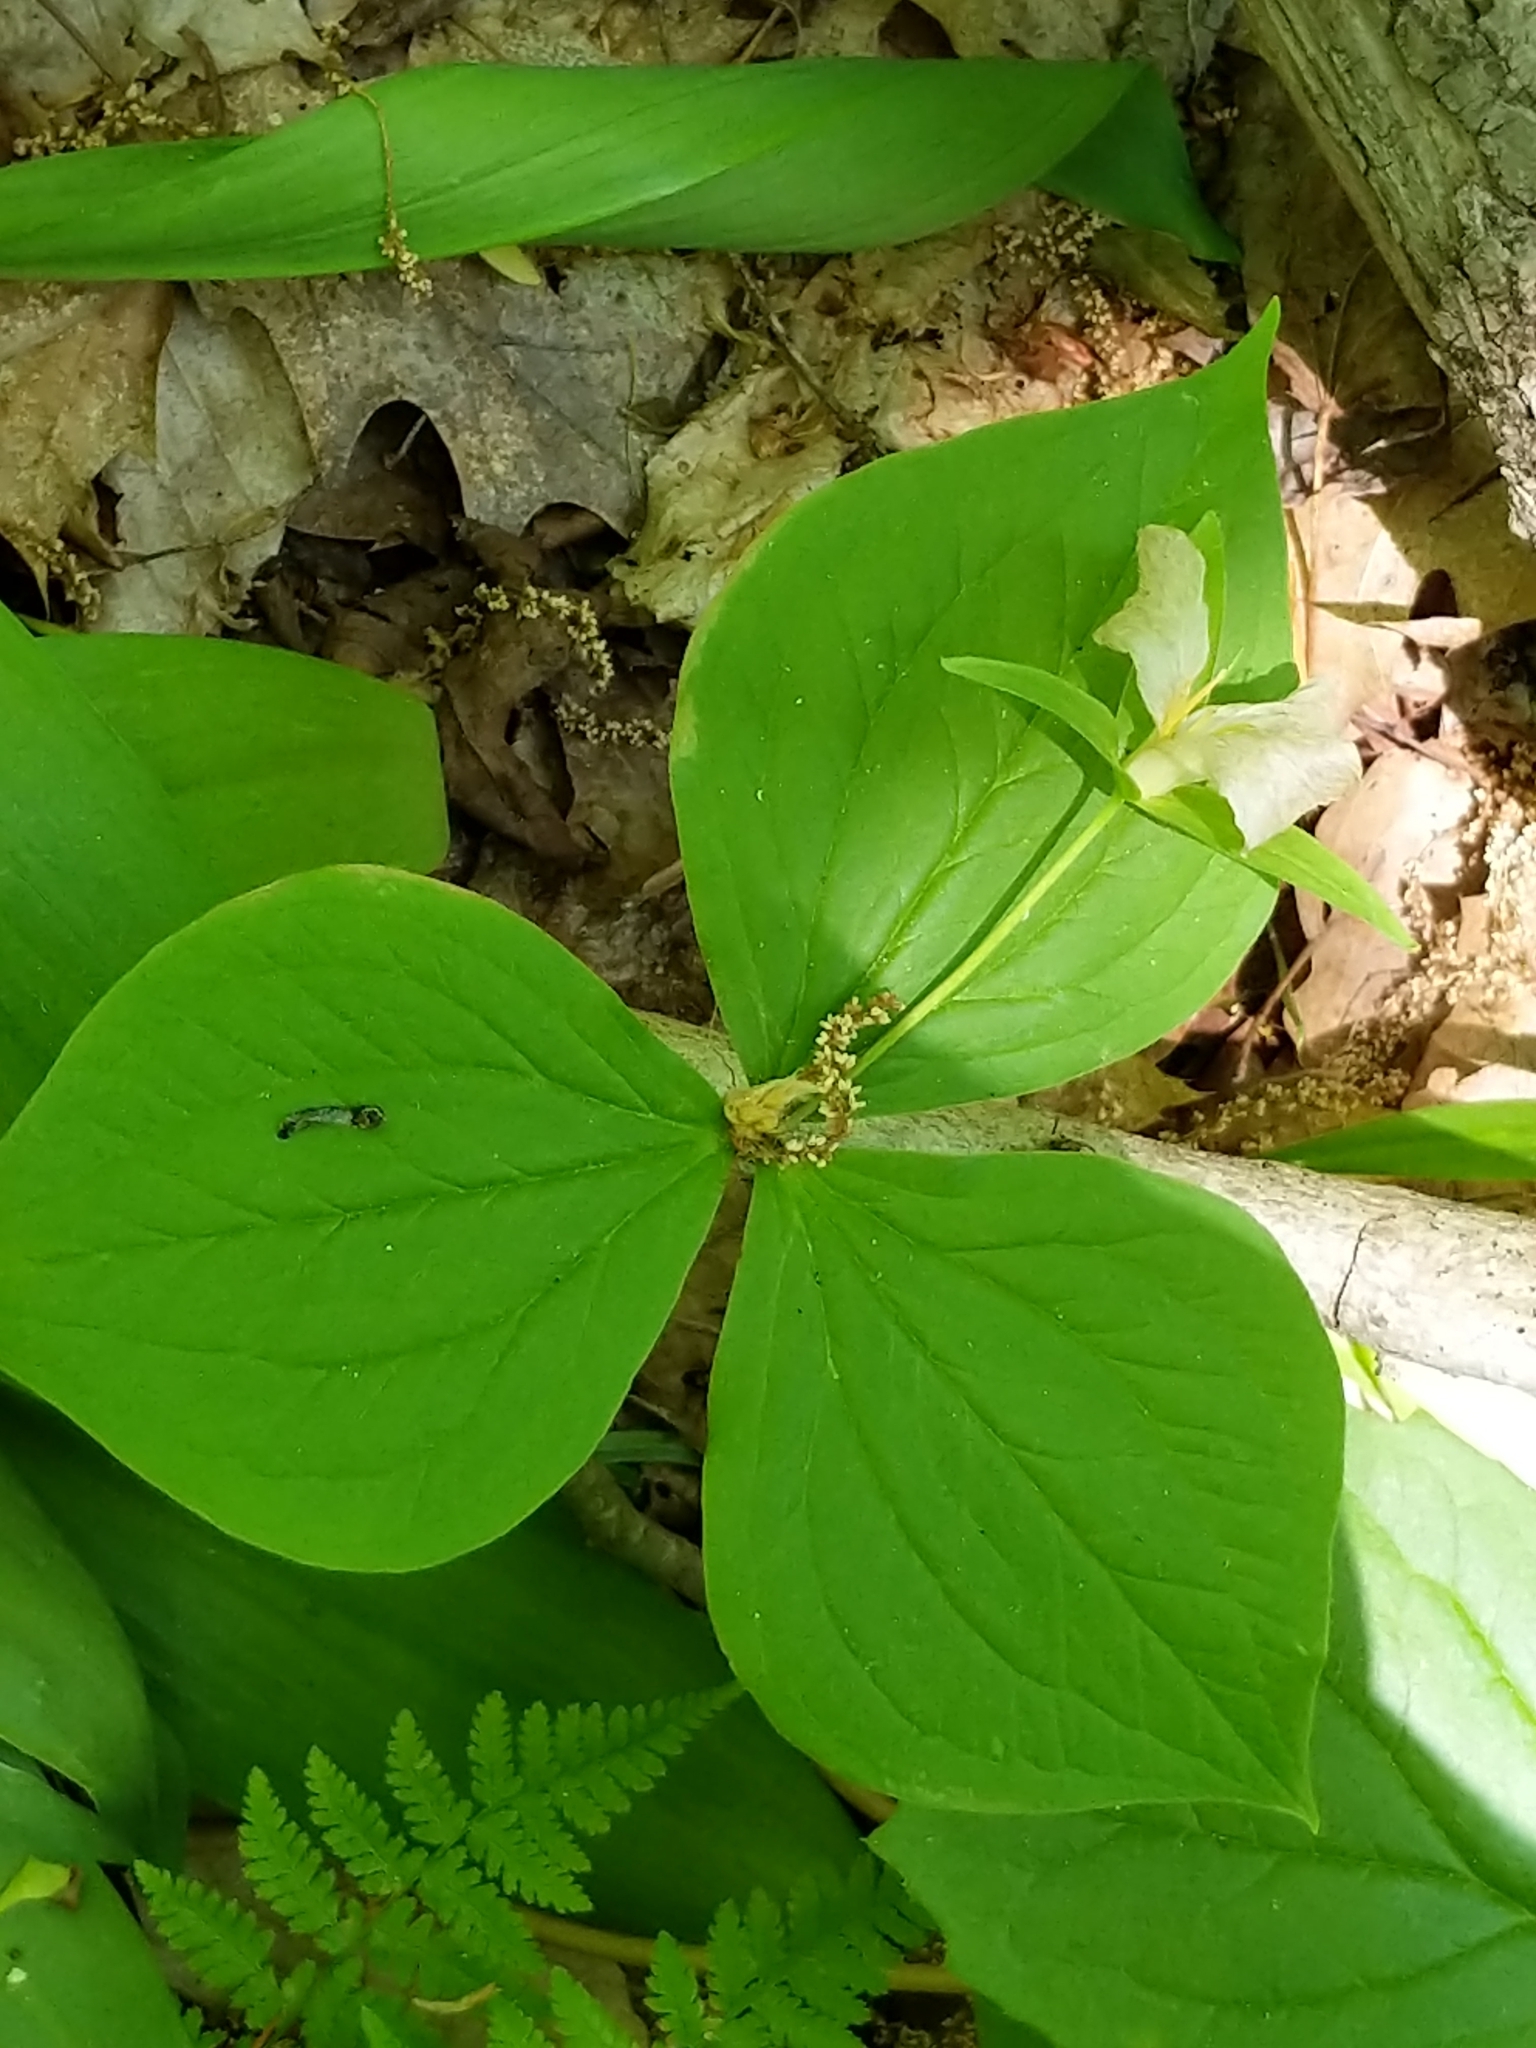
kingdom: Plantae
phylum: Tracheophyta
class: Liliopsida
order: Liliales
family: Melanthiaceae
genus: Trillium
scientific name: Trillium grandiflorum
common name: Great white trillium
